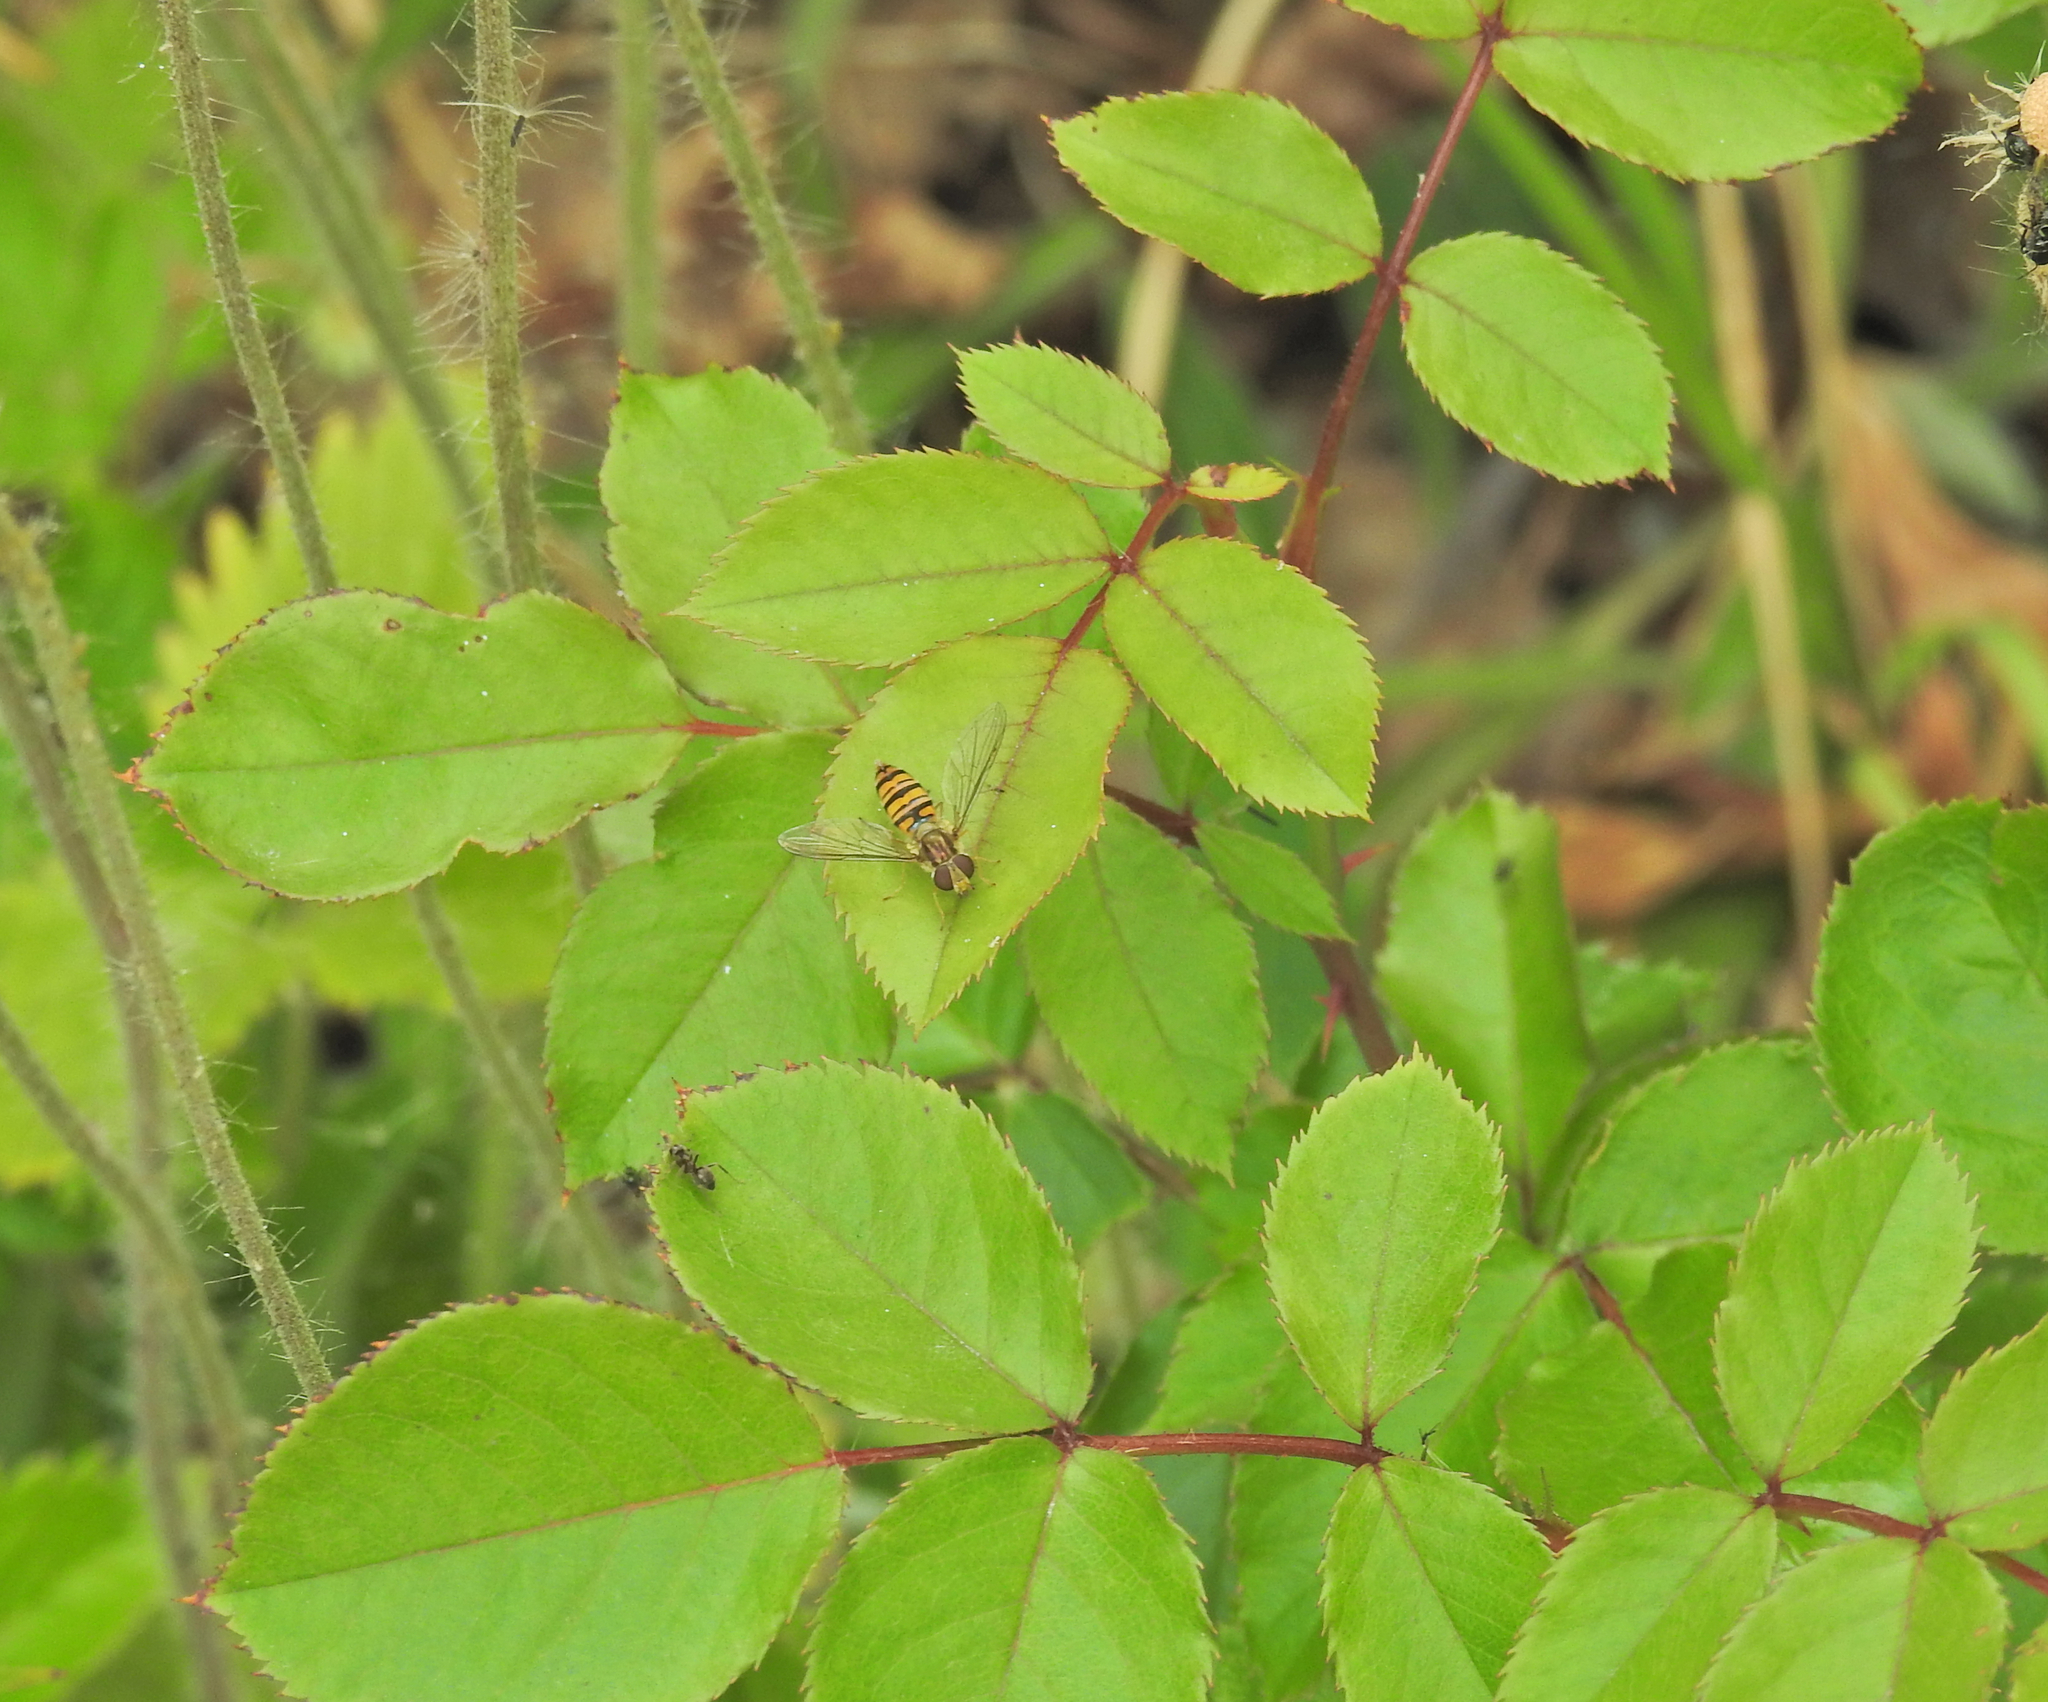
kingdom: Animalia
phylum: Arthropoda
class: Insecta
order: Diptera
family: Syrphidae
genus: Episyrphus
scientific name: Episyrphus balteatus
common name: Marmalade hoverfly
